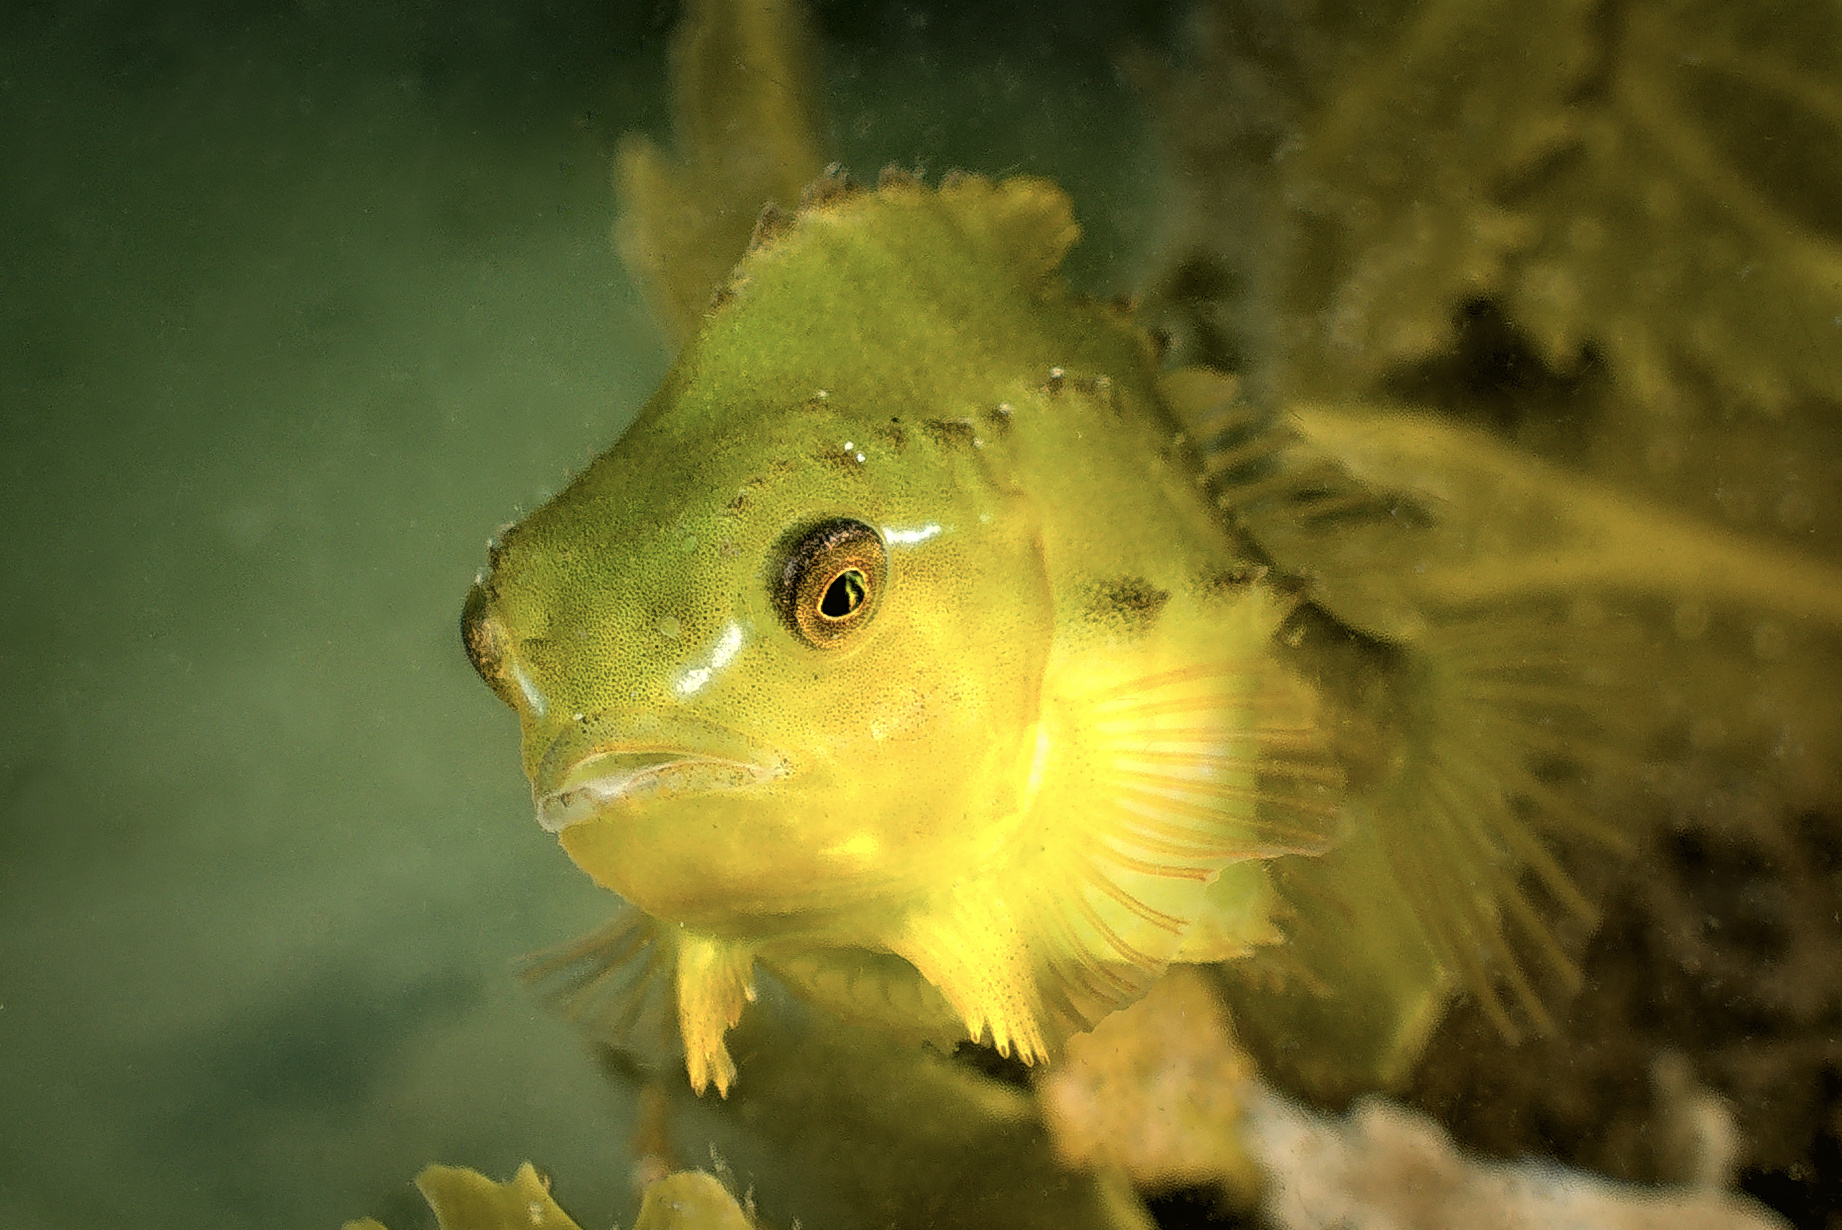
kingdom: Animalia
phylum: Chordata
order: Scorpaeniformes
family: Cyclopteridae
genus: Cyclopterus
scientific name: Cyclopterus lumpus
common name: Lumpsucker
